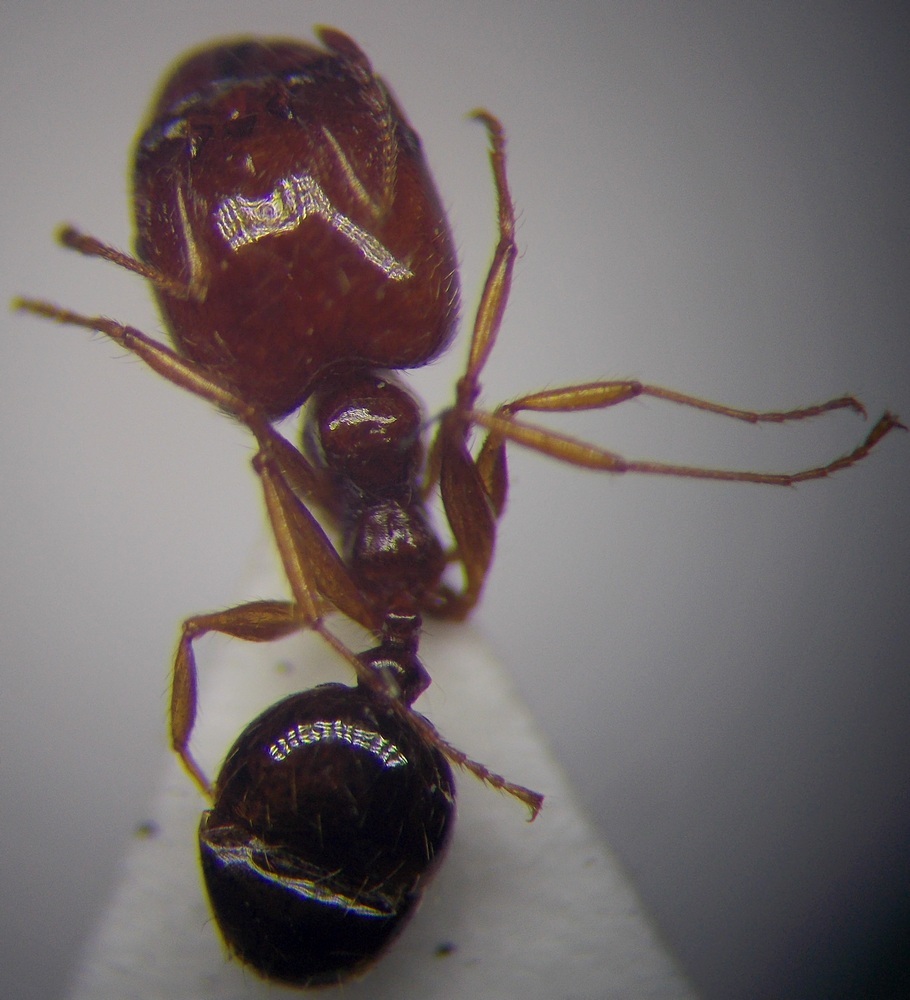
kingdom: Animalia
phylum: Arthropoda
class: Insecta
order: Hymenoptera
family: Formicidae
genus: Pheidole
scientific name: Pheidole pallidula
